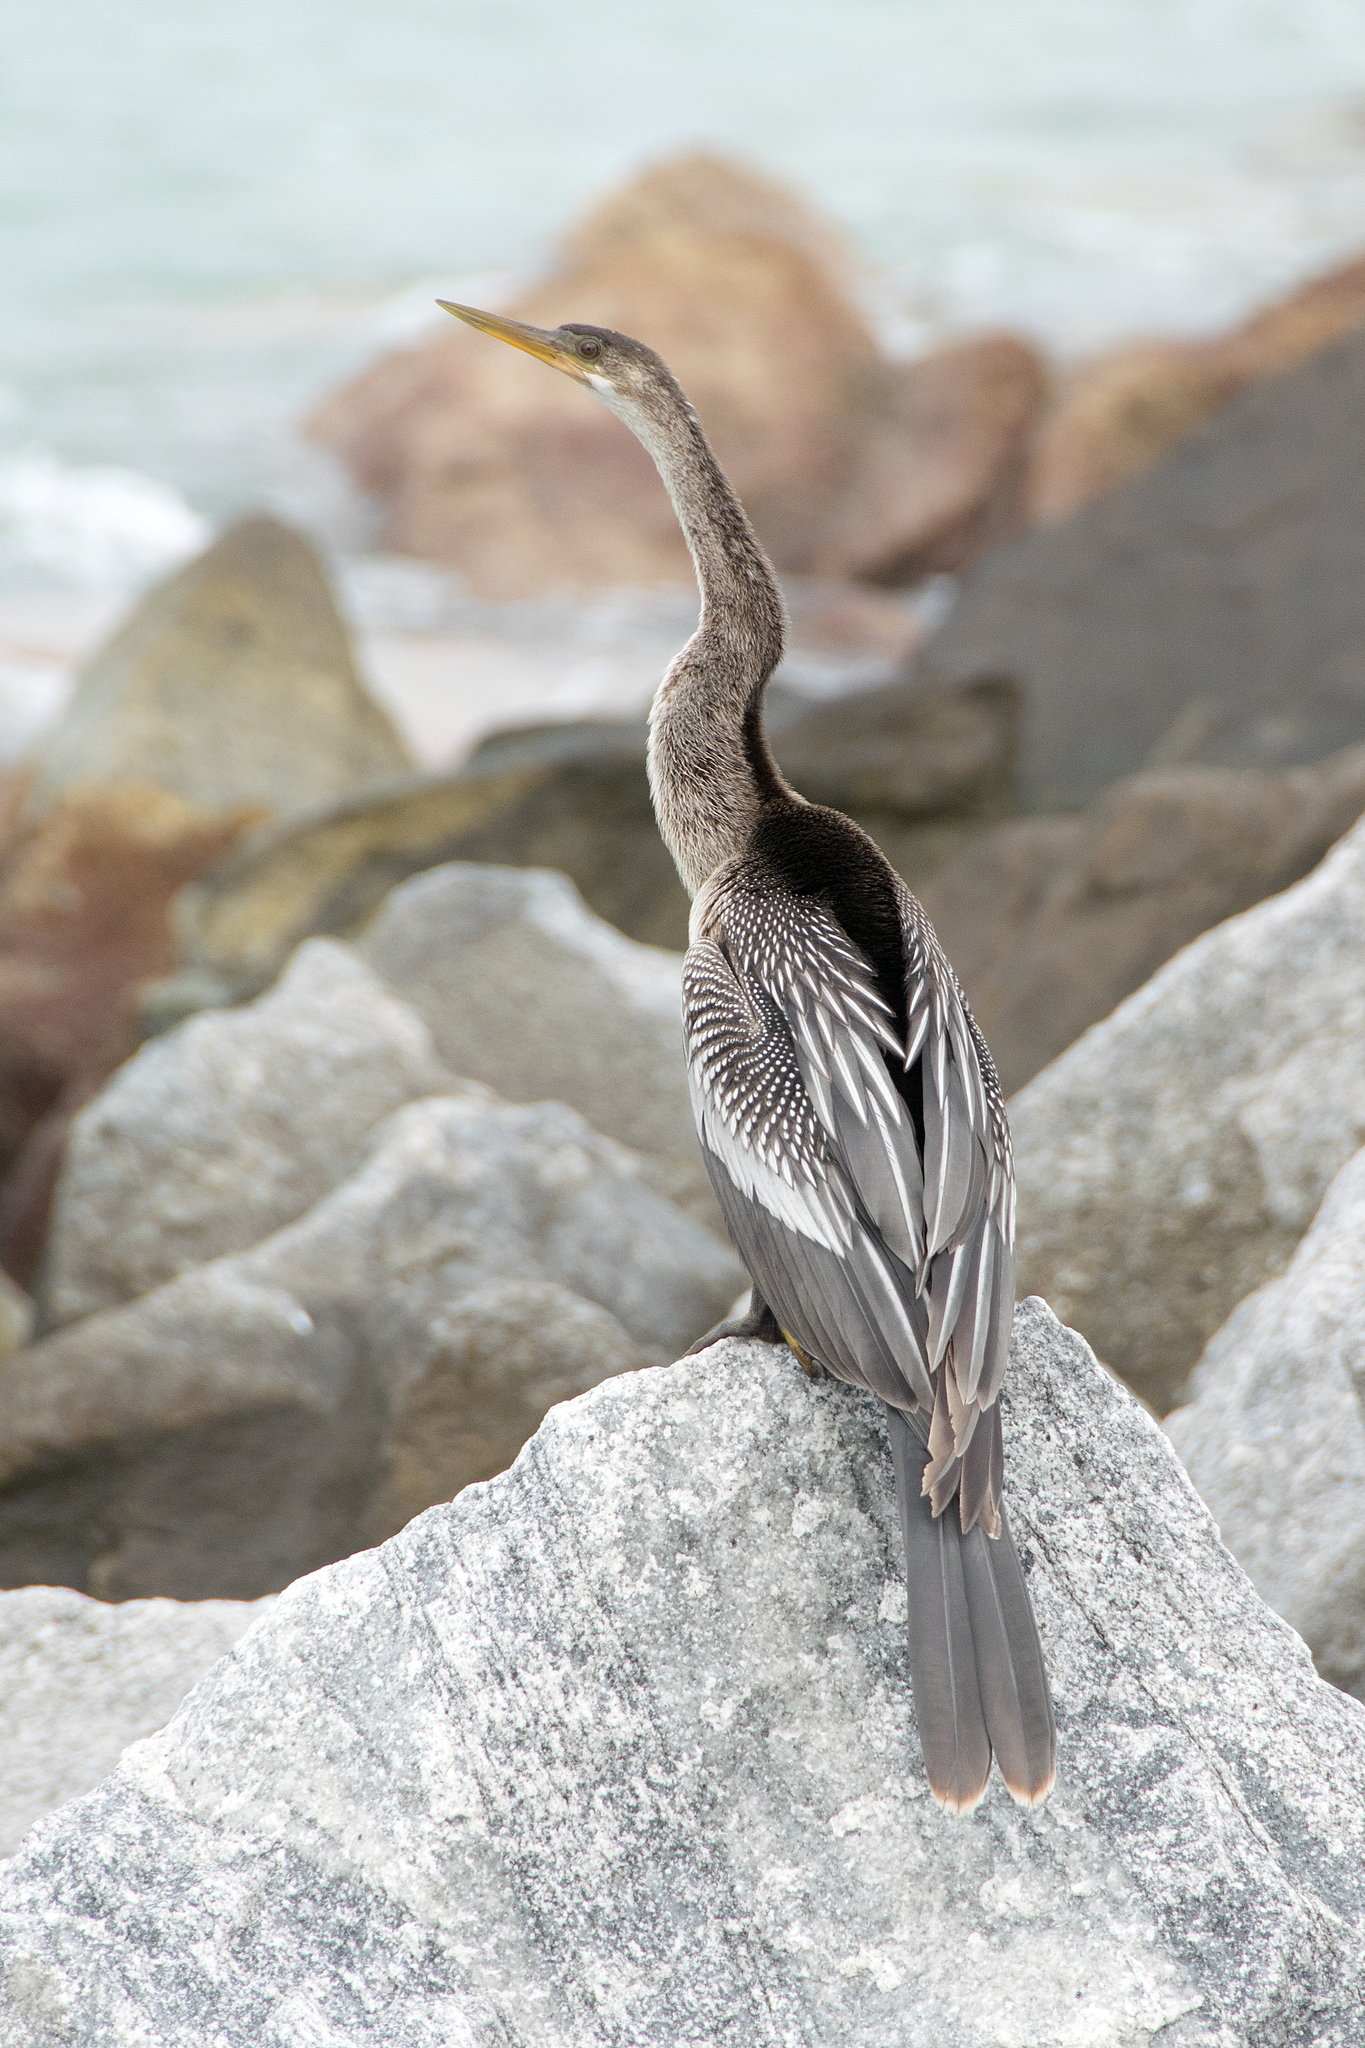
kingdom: Animalia
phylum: Chordata
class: Aves
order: Suliformes
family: Anhingidae
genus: Anhinga
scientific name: Anhinga anhinga
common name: Anhinga
